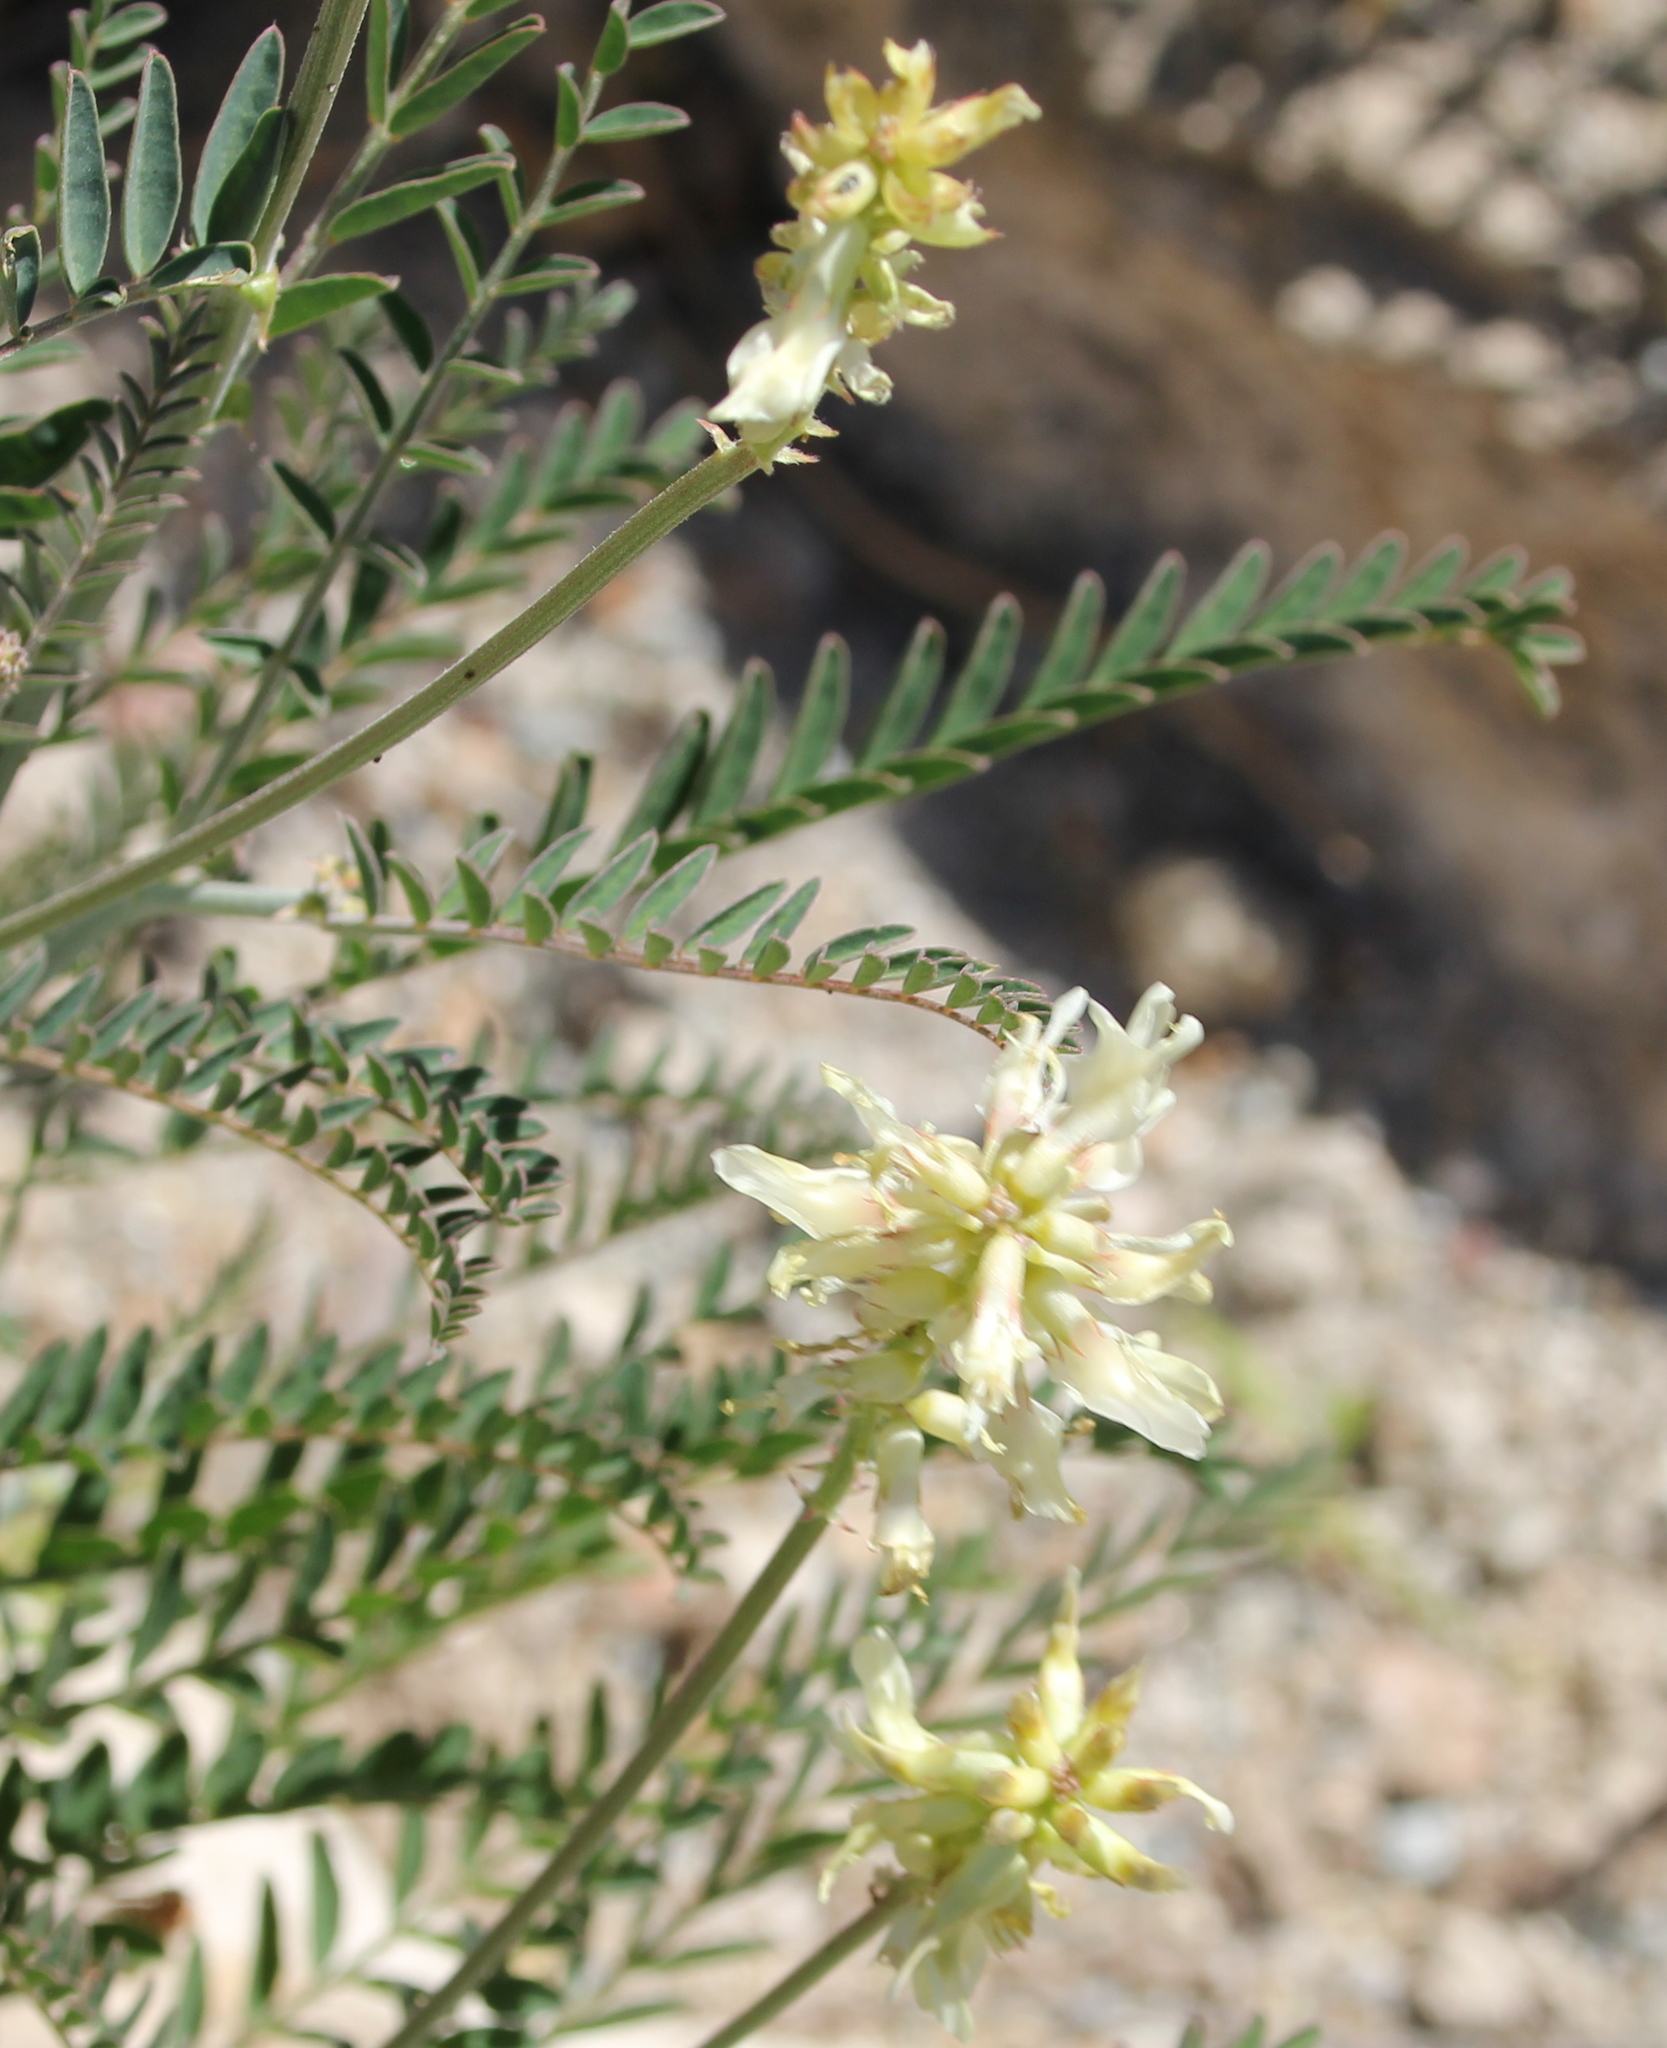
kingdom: Plantae
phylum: Tracheophyta
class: Magnoliopsida
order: Fabales
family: Fabaceae
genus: Astragalus
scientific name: Astragalus trichopodus
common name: Santa barbara milk-vetch
